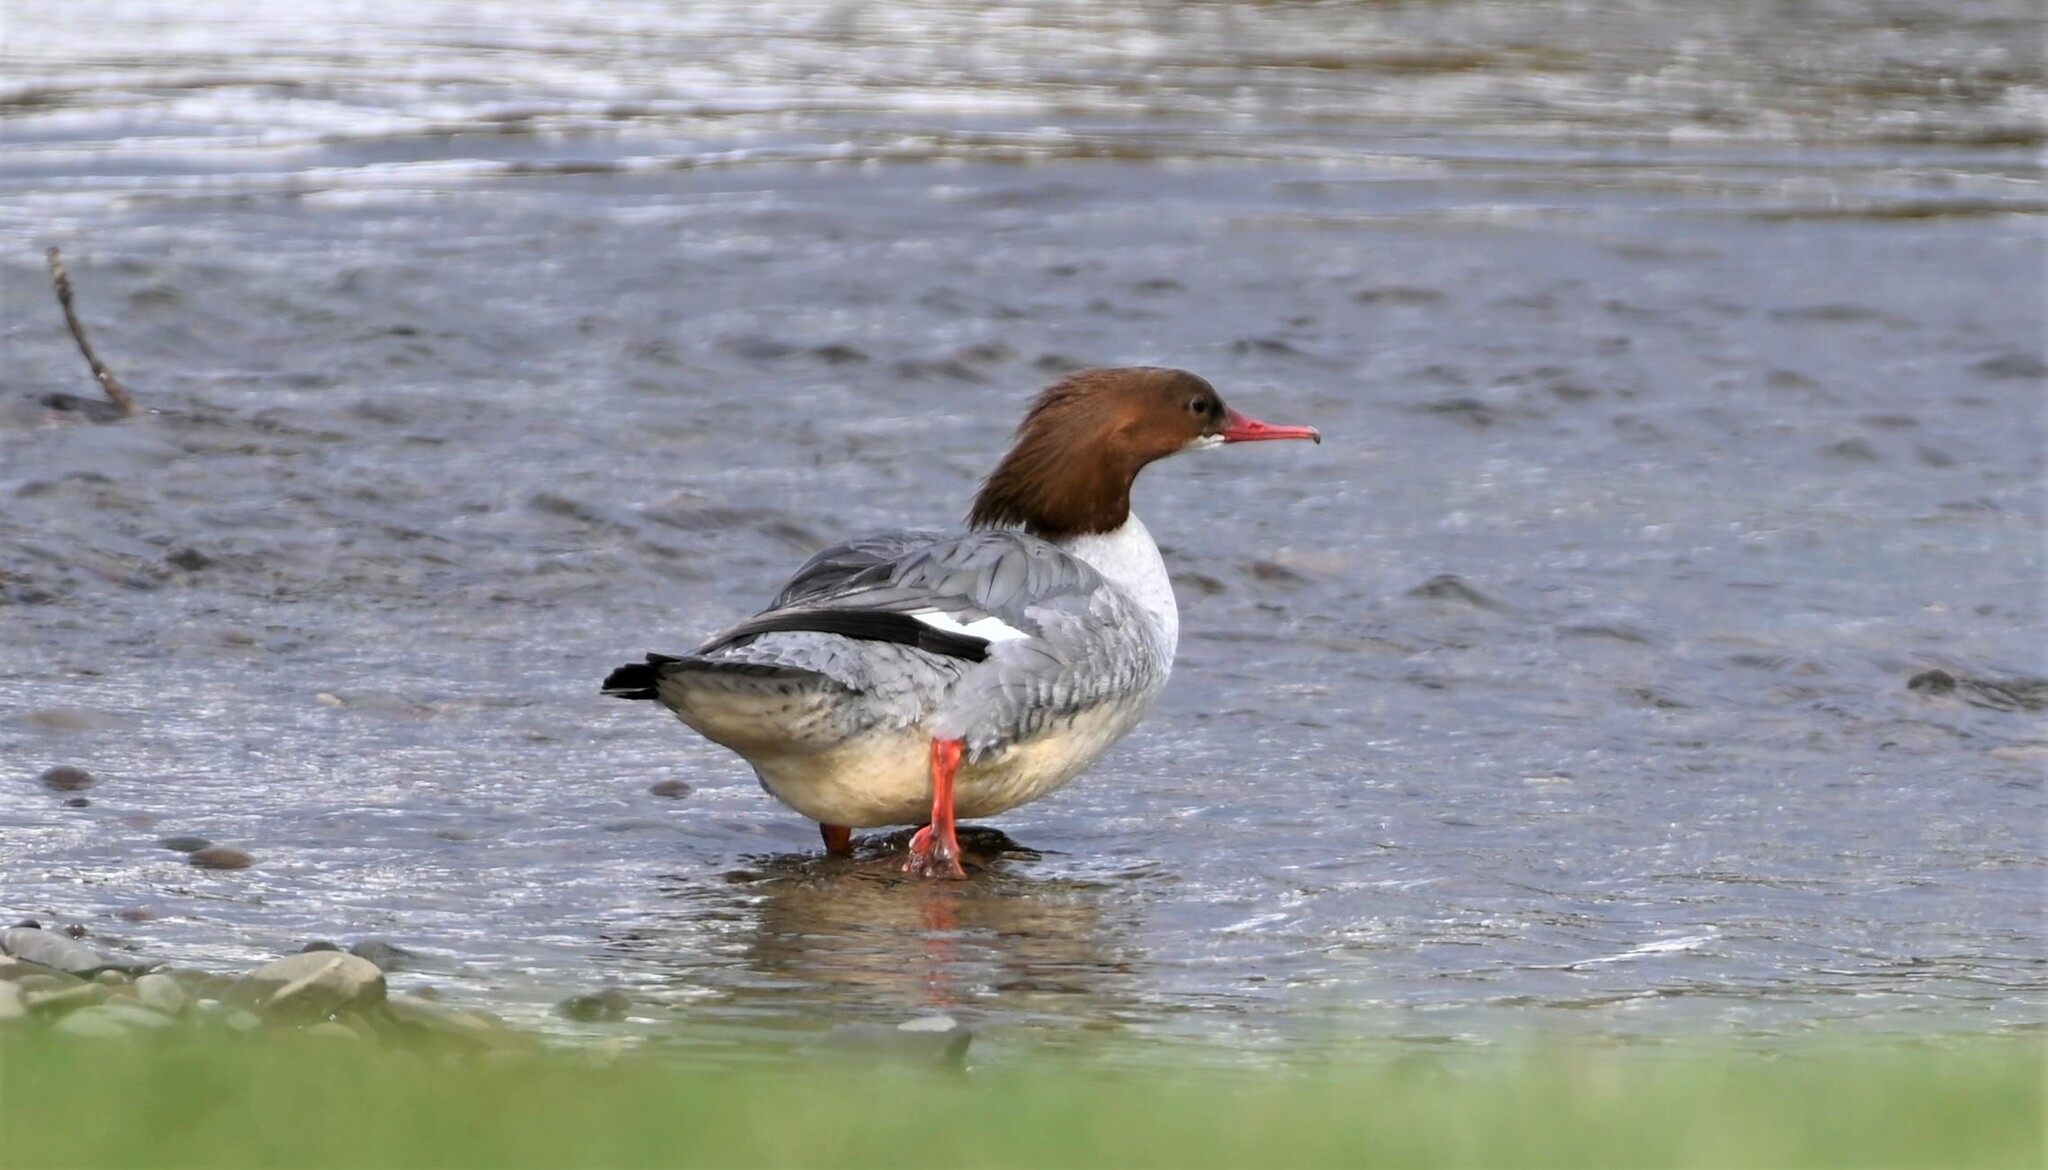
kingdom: Animalia
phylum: Chordata
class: Aves
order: Anseriformes
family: Anatidae
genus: Mergus
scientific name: Mergus merganser
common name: Common merganser
